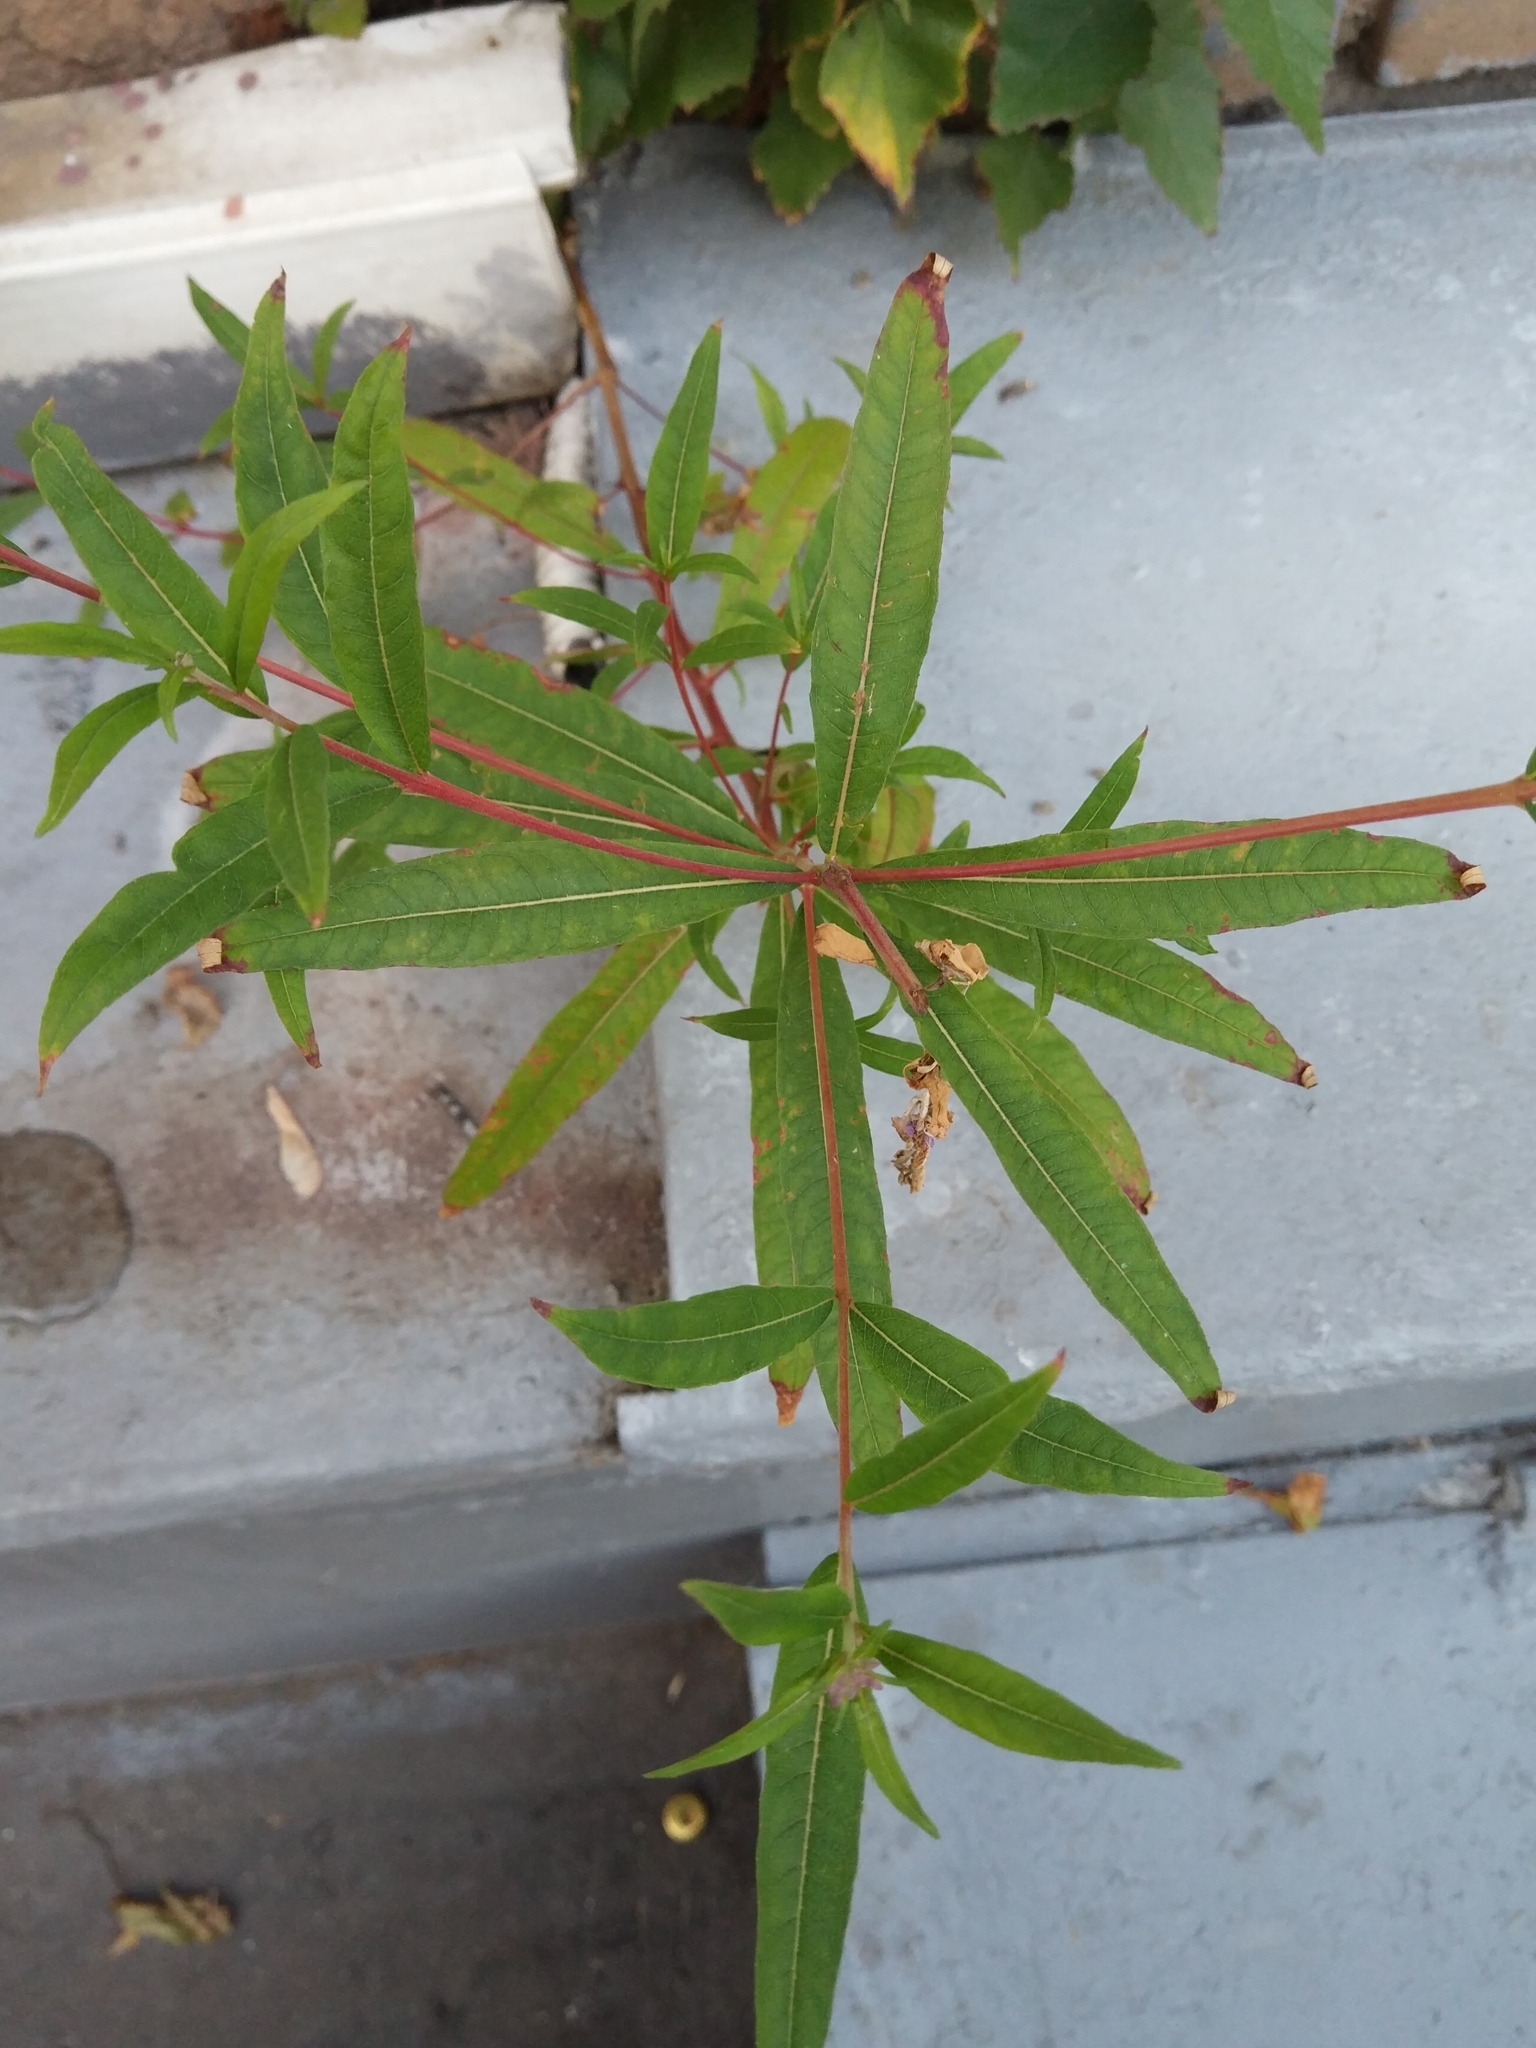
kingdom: Plantae
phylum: Tracheophyta
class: Magnoliopsida
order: Myrtales
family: Onagraceae
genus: Chamaenerion
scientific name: Chamaenerion angustifolium
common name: Fireweed
